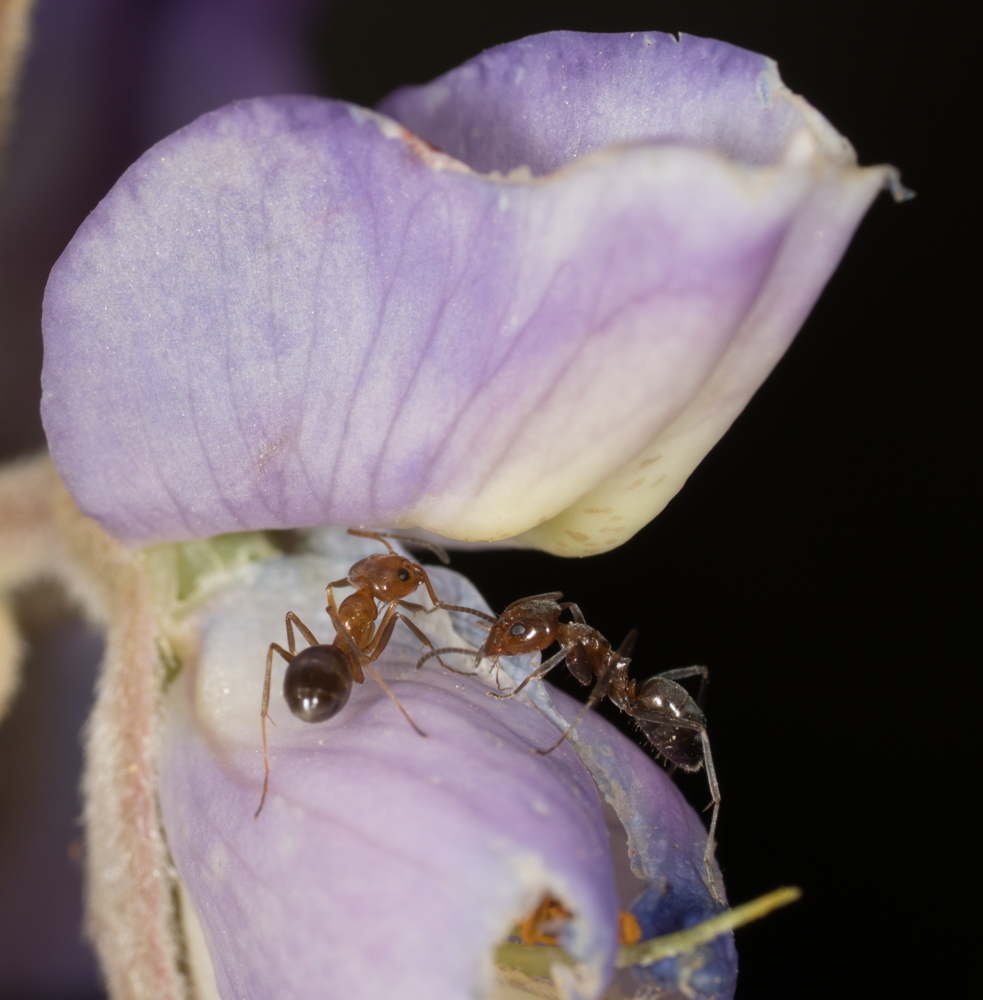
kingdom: Animalia
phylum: Arthropoda
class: Insecta
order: Hymenoptera
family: Formicidae
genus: Dorymyrmex
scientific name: Dorymyrmex bicolor
